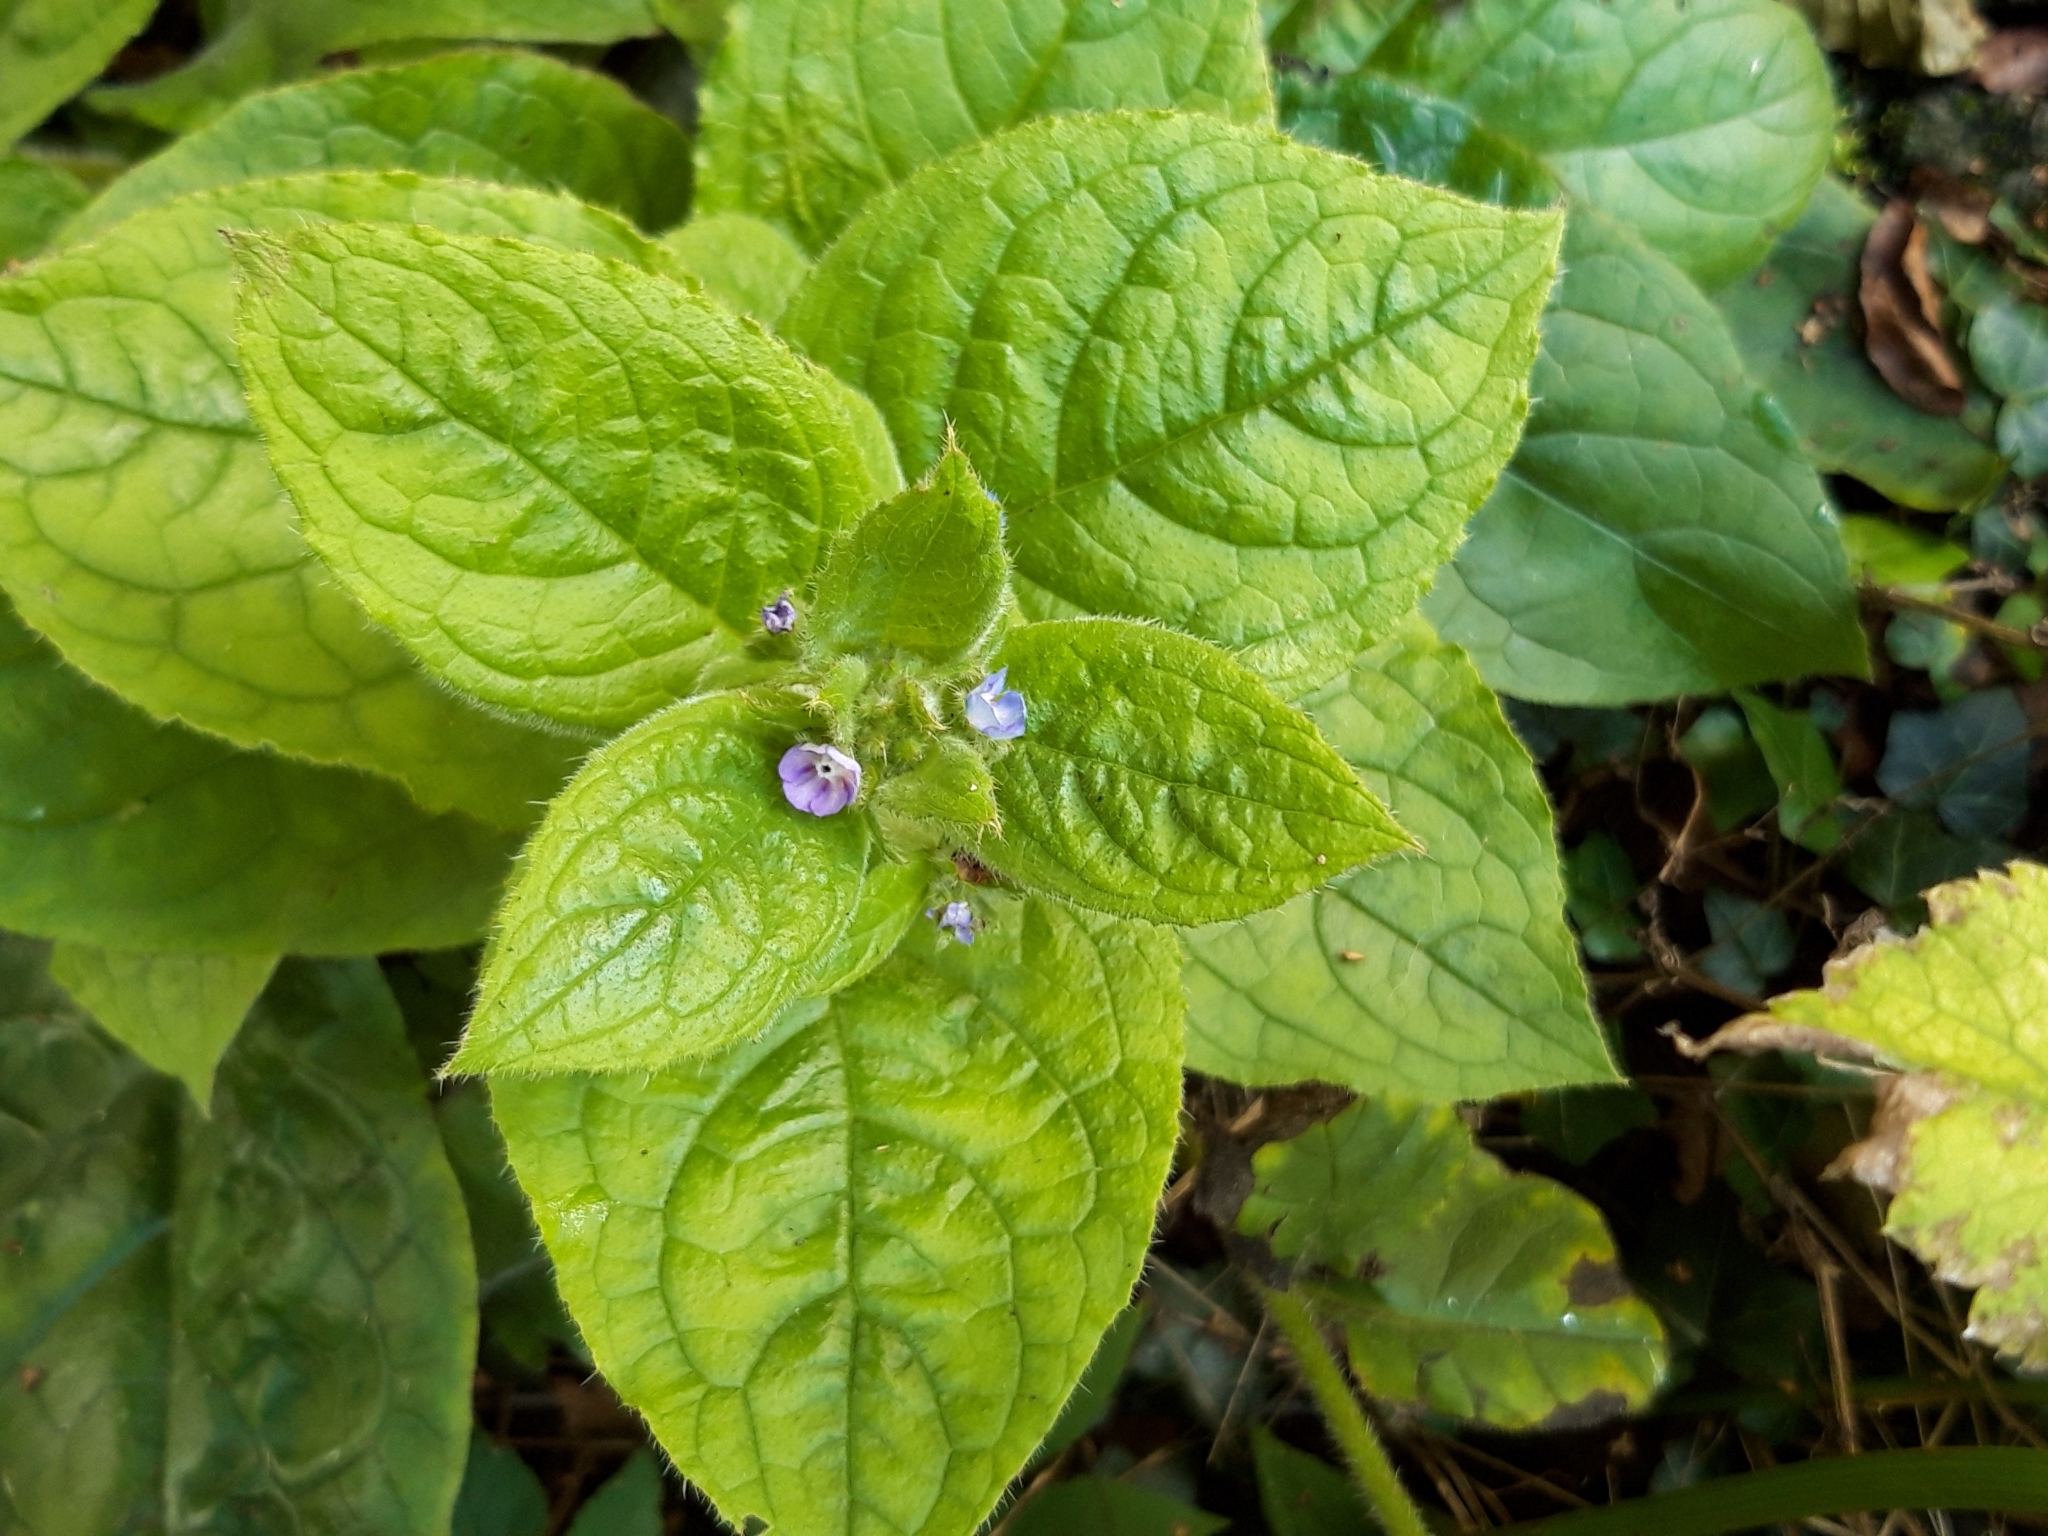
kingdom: Plantae
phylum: Tracheophyta
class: Magnoliopsida
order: Boraginales
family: Boraginaceae
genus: Pentaglottis
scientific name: Pentaglottis sempervirens
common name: Green alkanet
